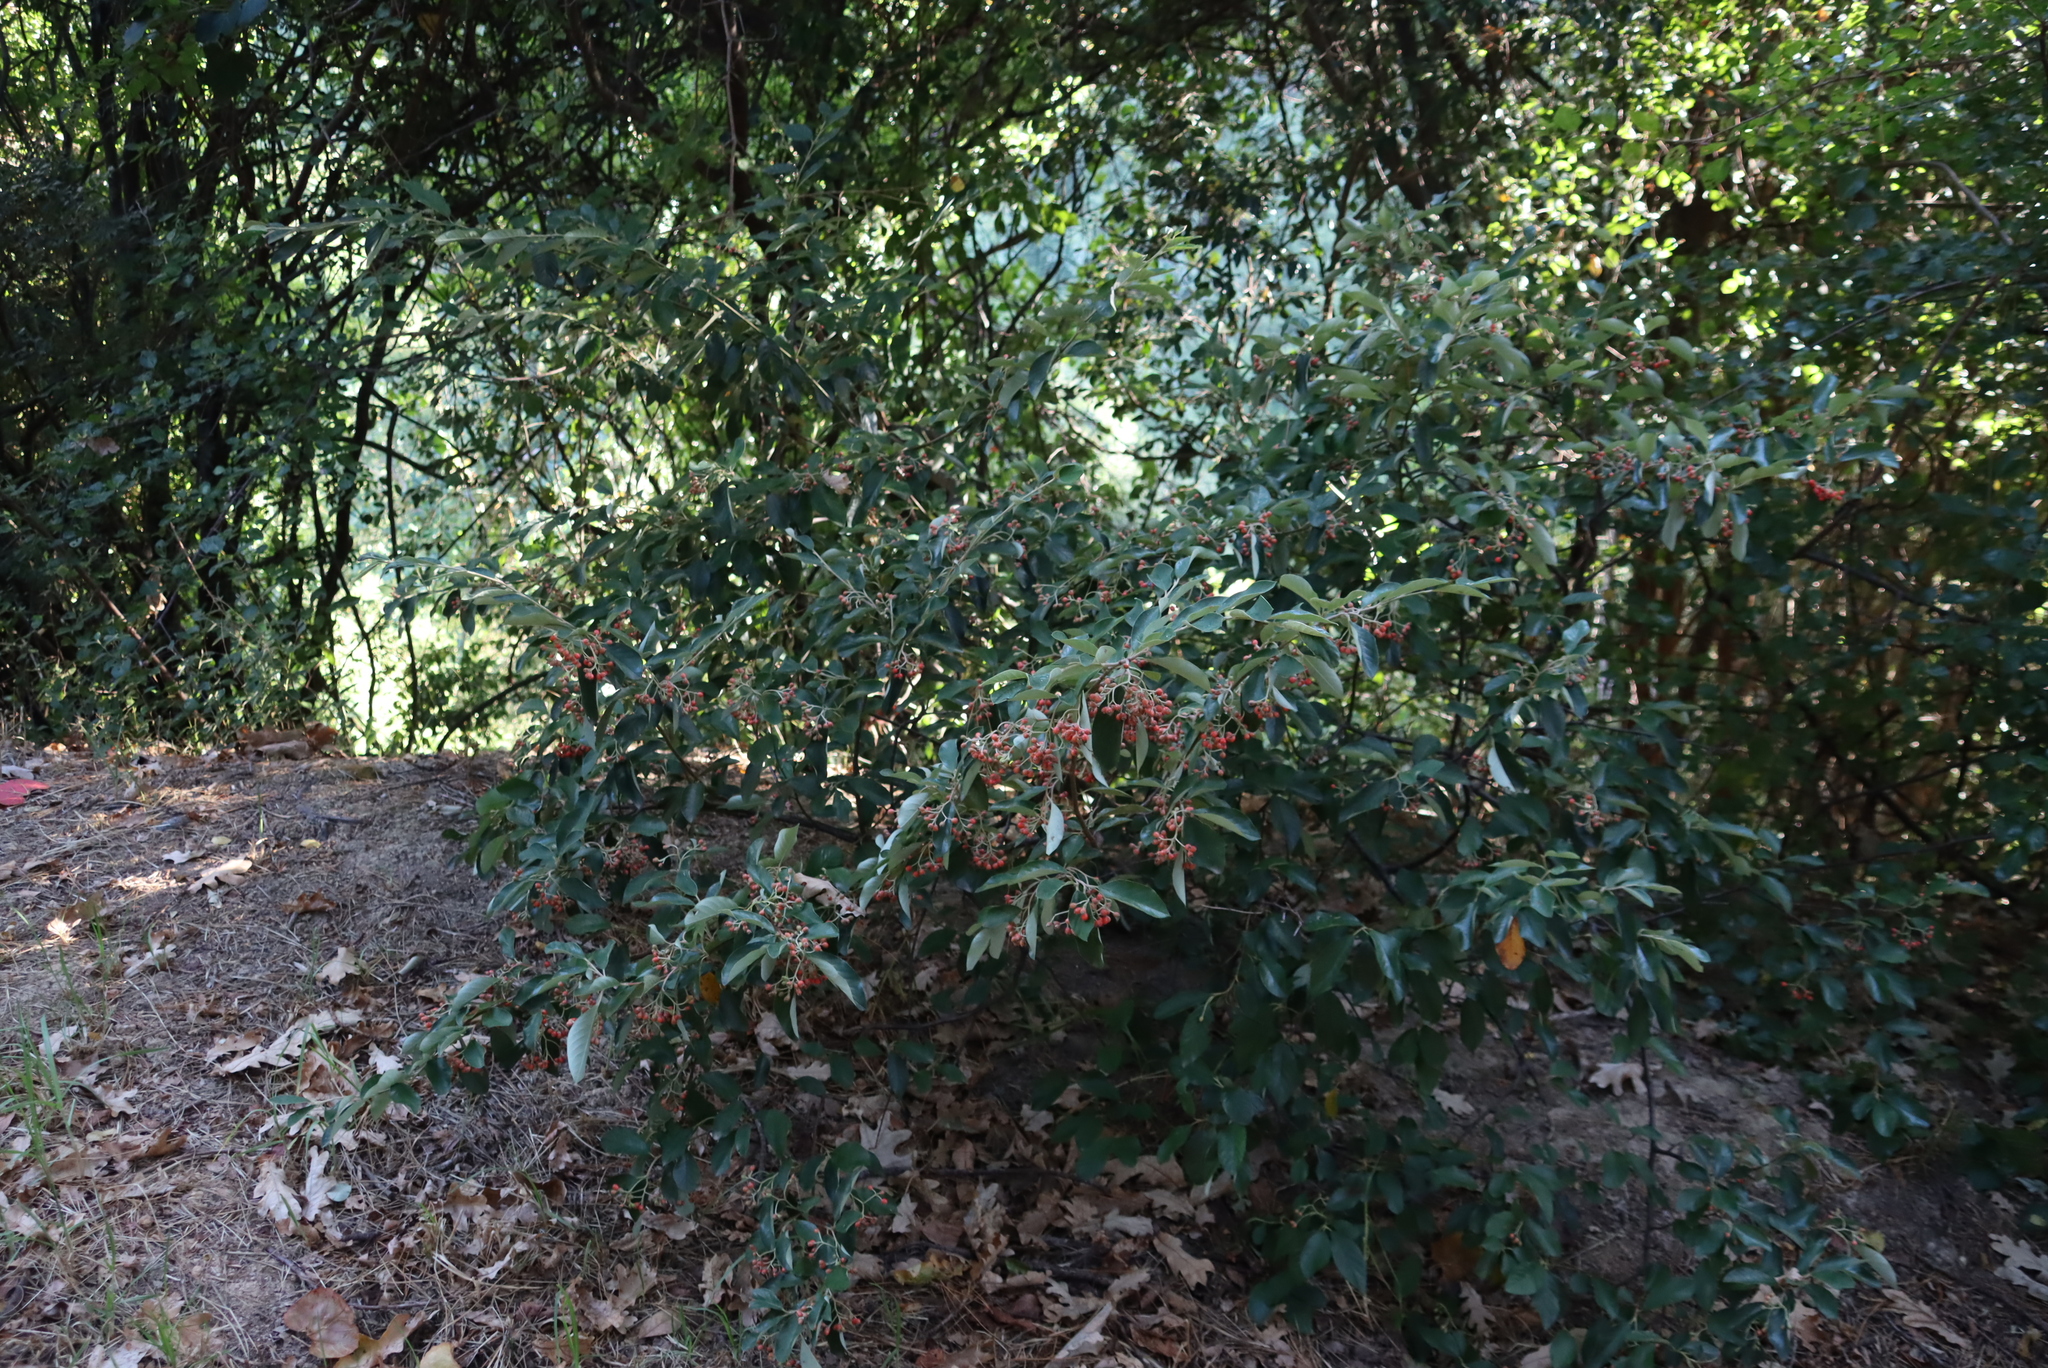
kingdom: Plantae
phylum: Tracheophyta
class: Magnoliopsida
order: Rosales
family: Rosaceae
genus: Cotoneaster
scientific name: Cotoneaster glaucophyllus
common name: Glaucous cotoneaster
